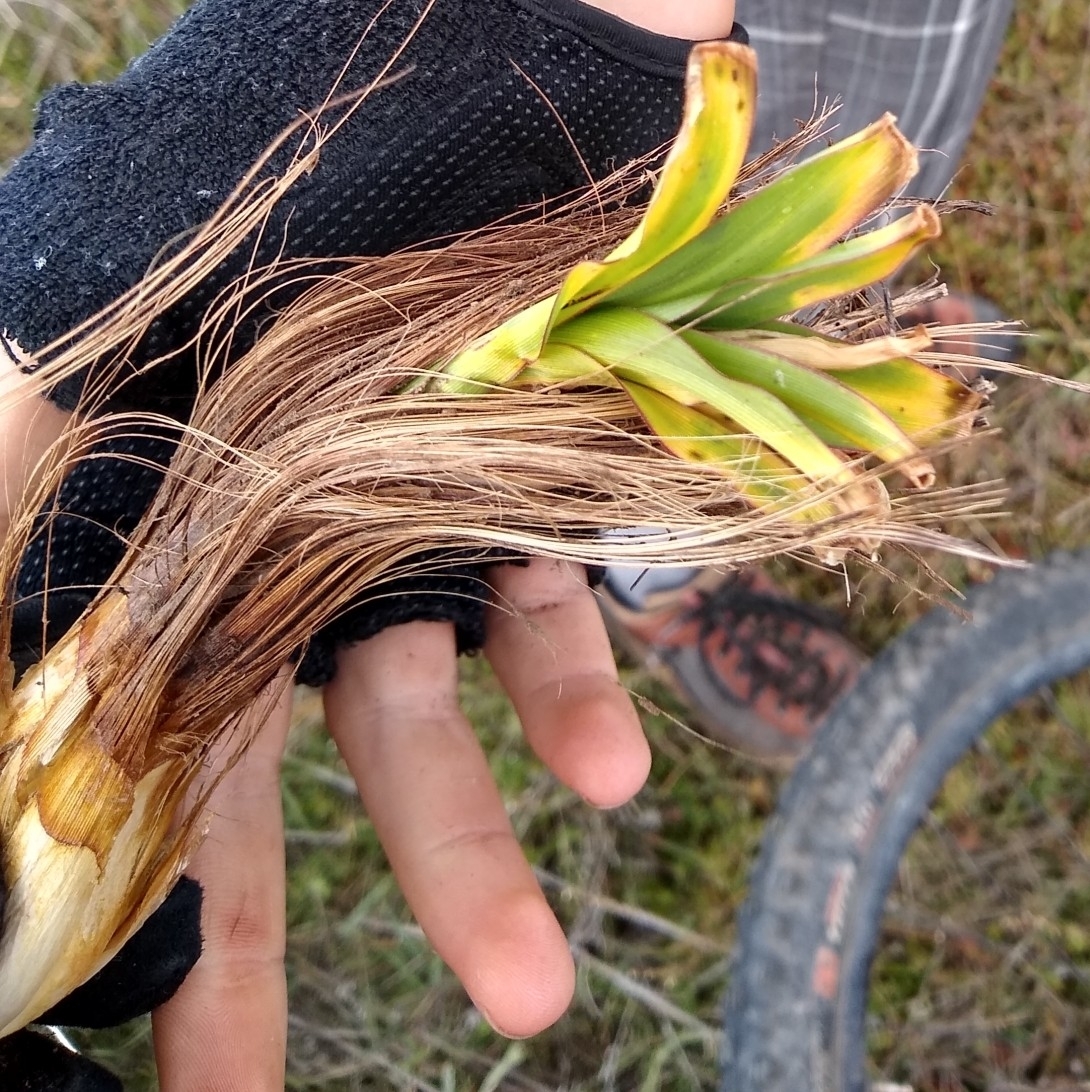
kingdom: Plantae
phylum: Tracheophyta
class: Liliopsida
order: Asparagales
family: Asparagaceae
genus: Chlorogalum
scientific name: Chlorogalum pomeridianum
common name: Amole
